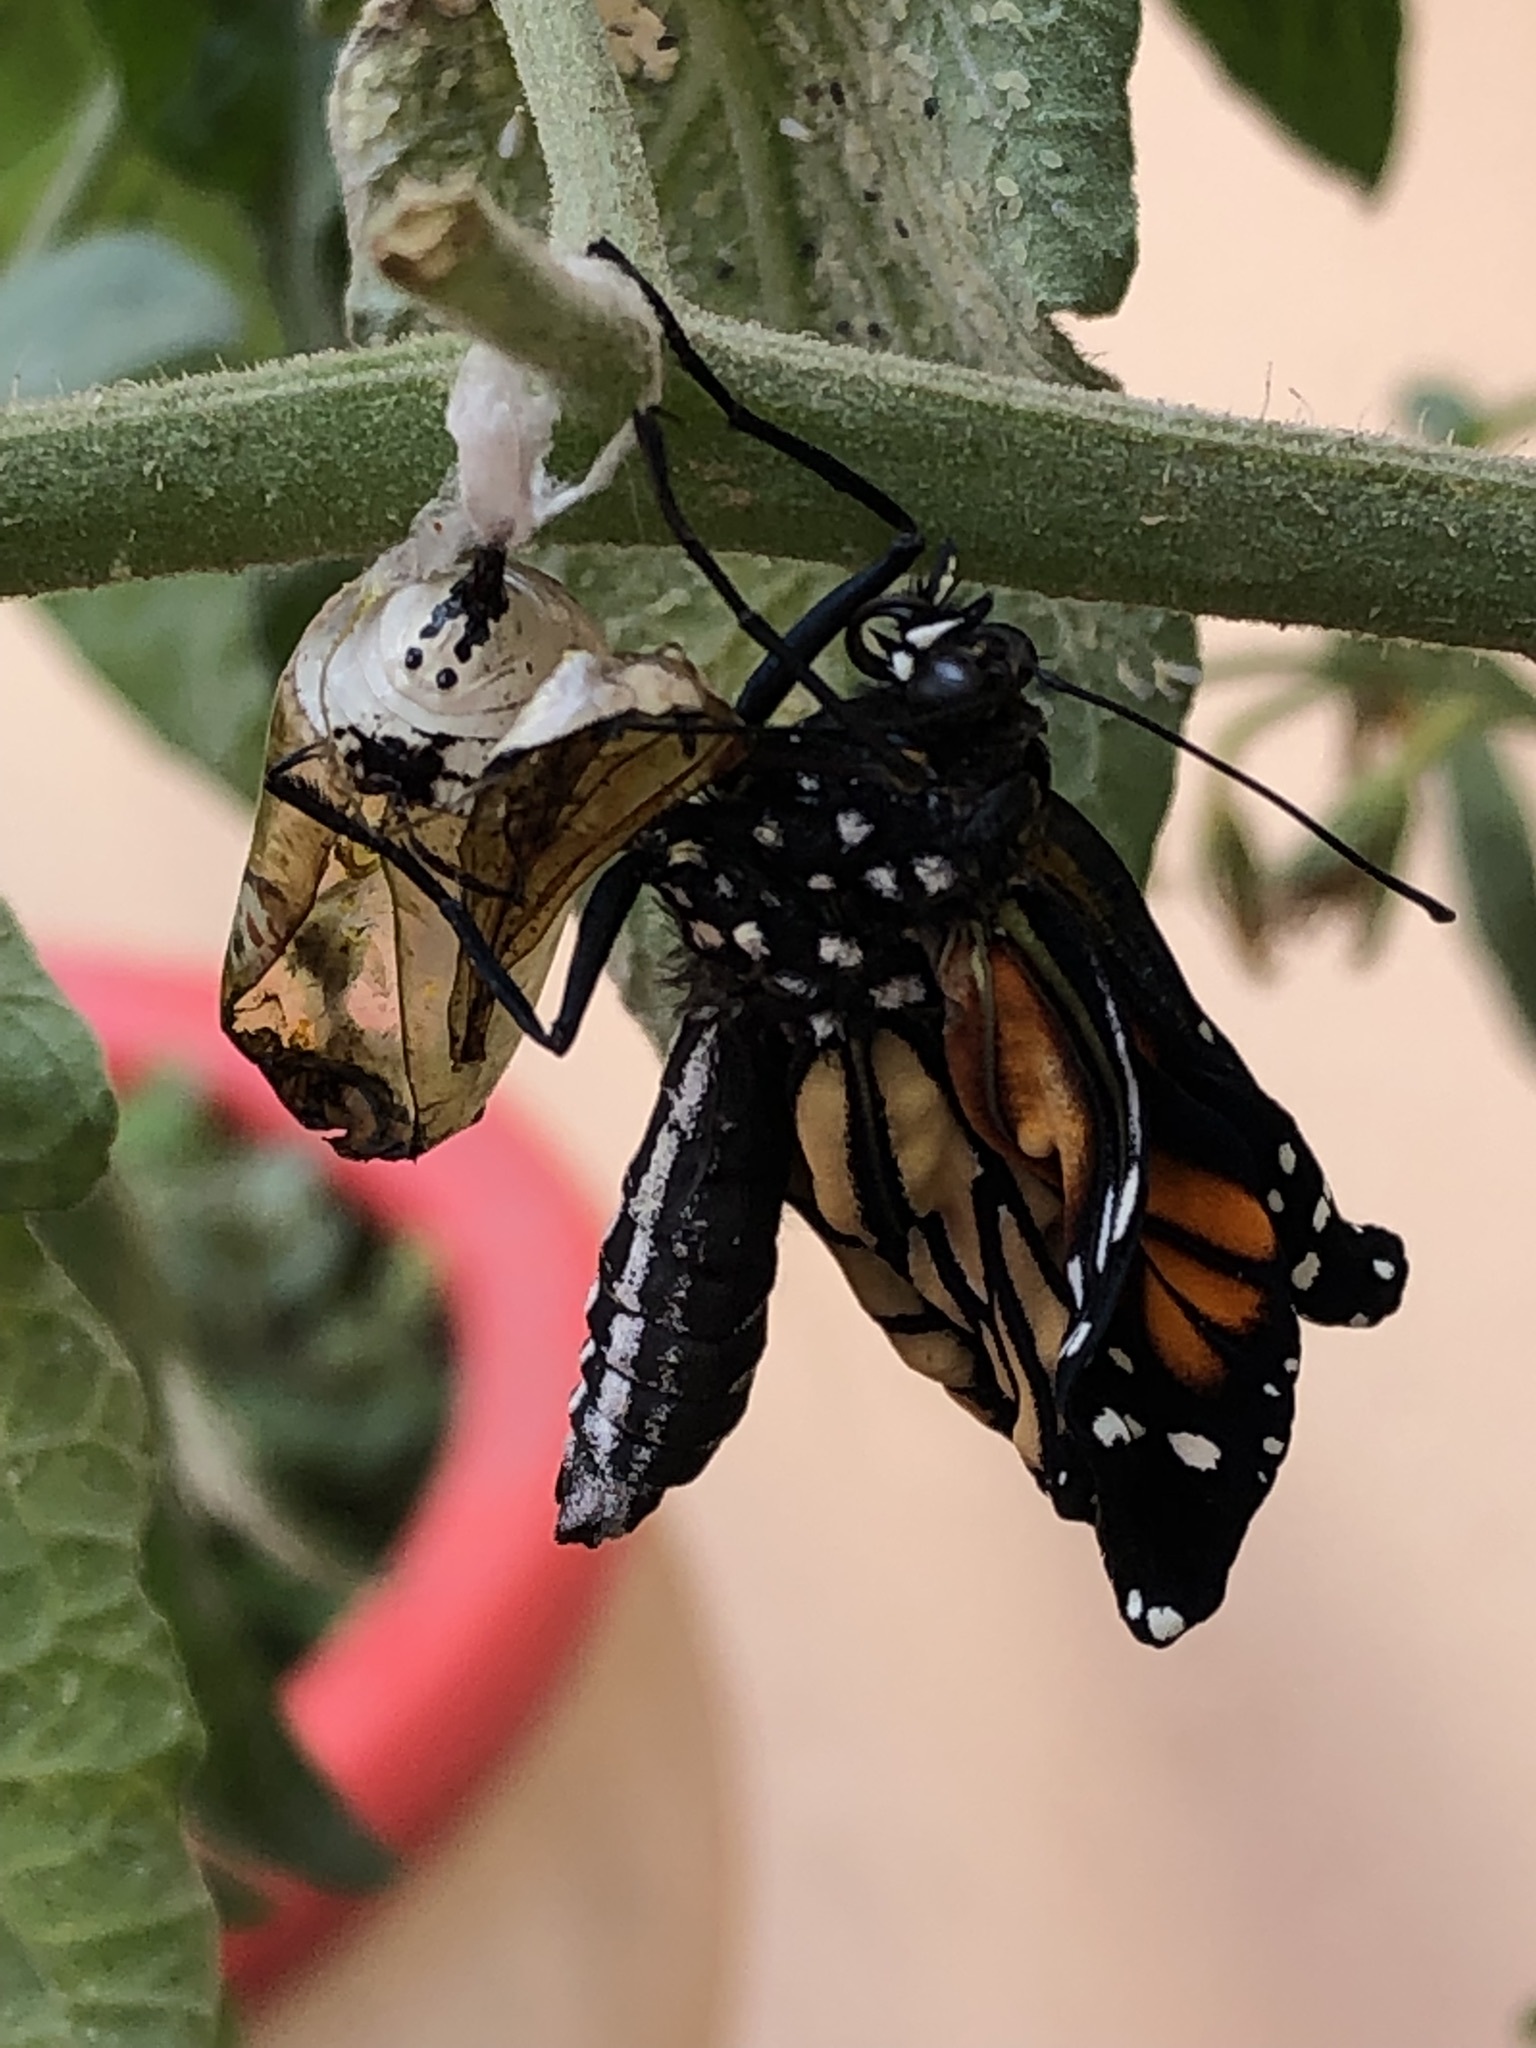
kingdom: Animalia
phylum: Arthropoda
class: Insecta
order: Lepidoptera
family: Nymphalidae
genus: Danaus
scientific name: Danaus plexippus
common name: Monarch
